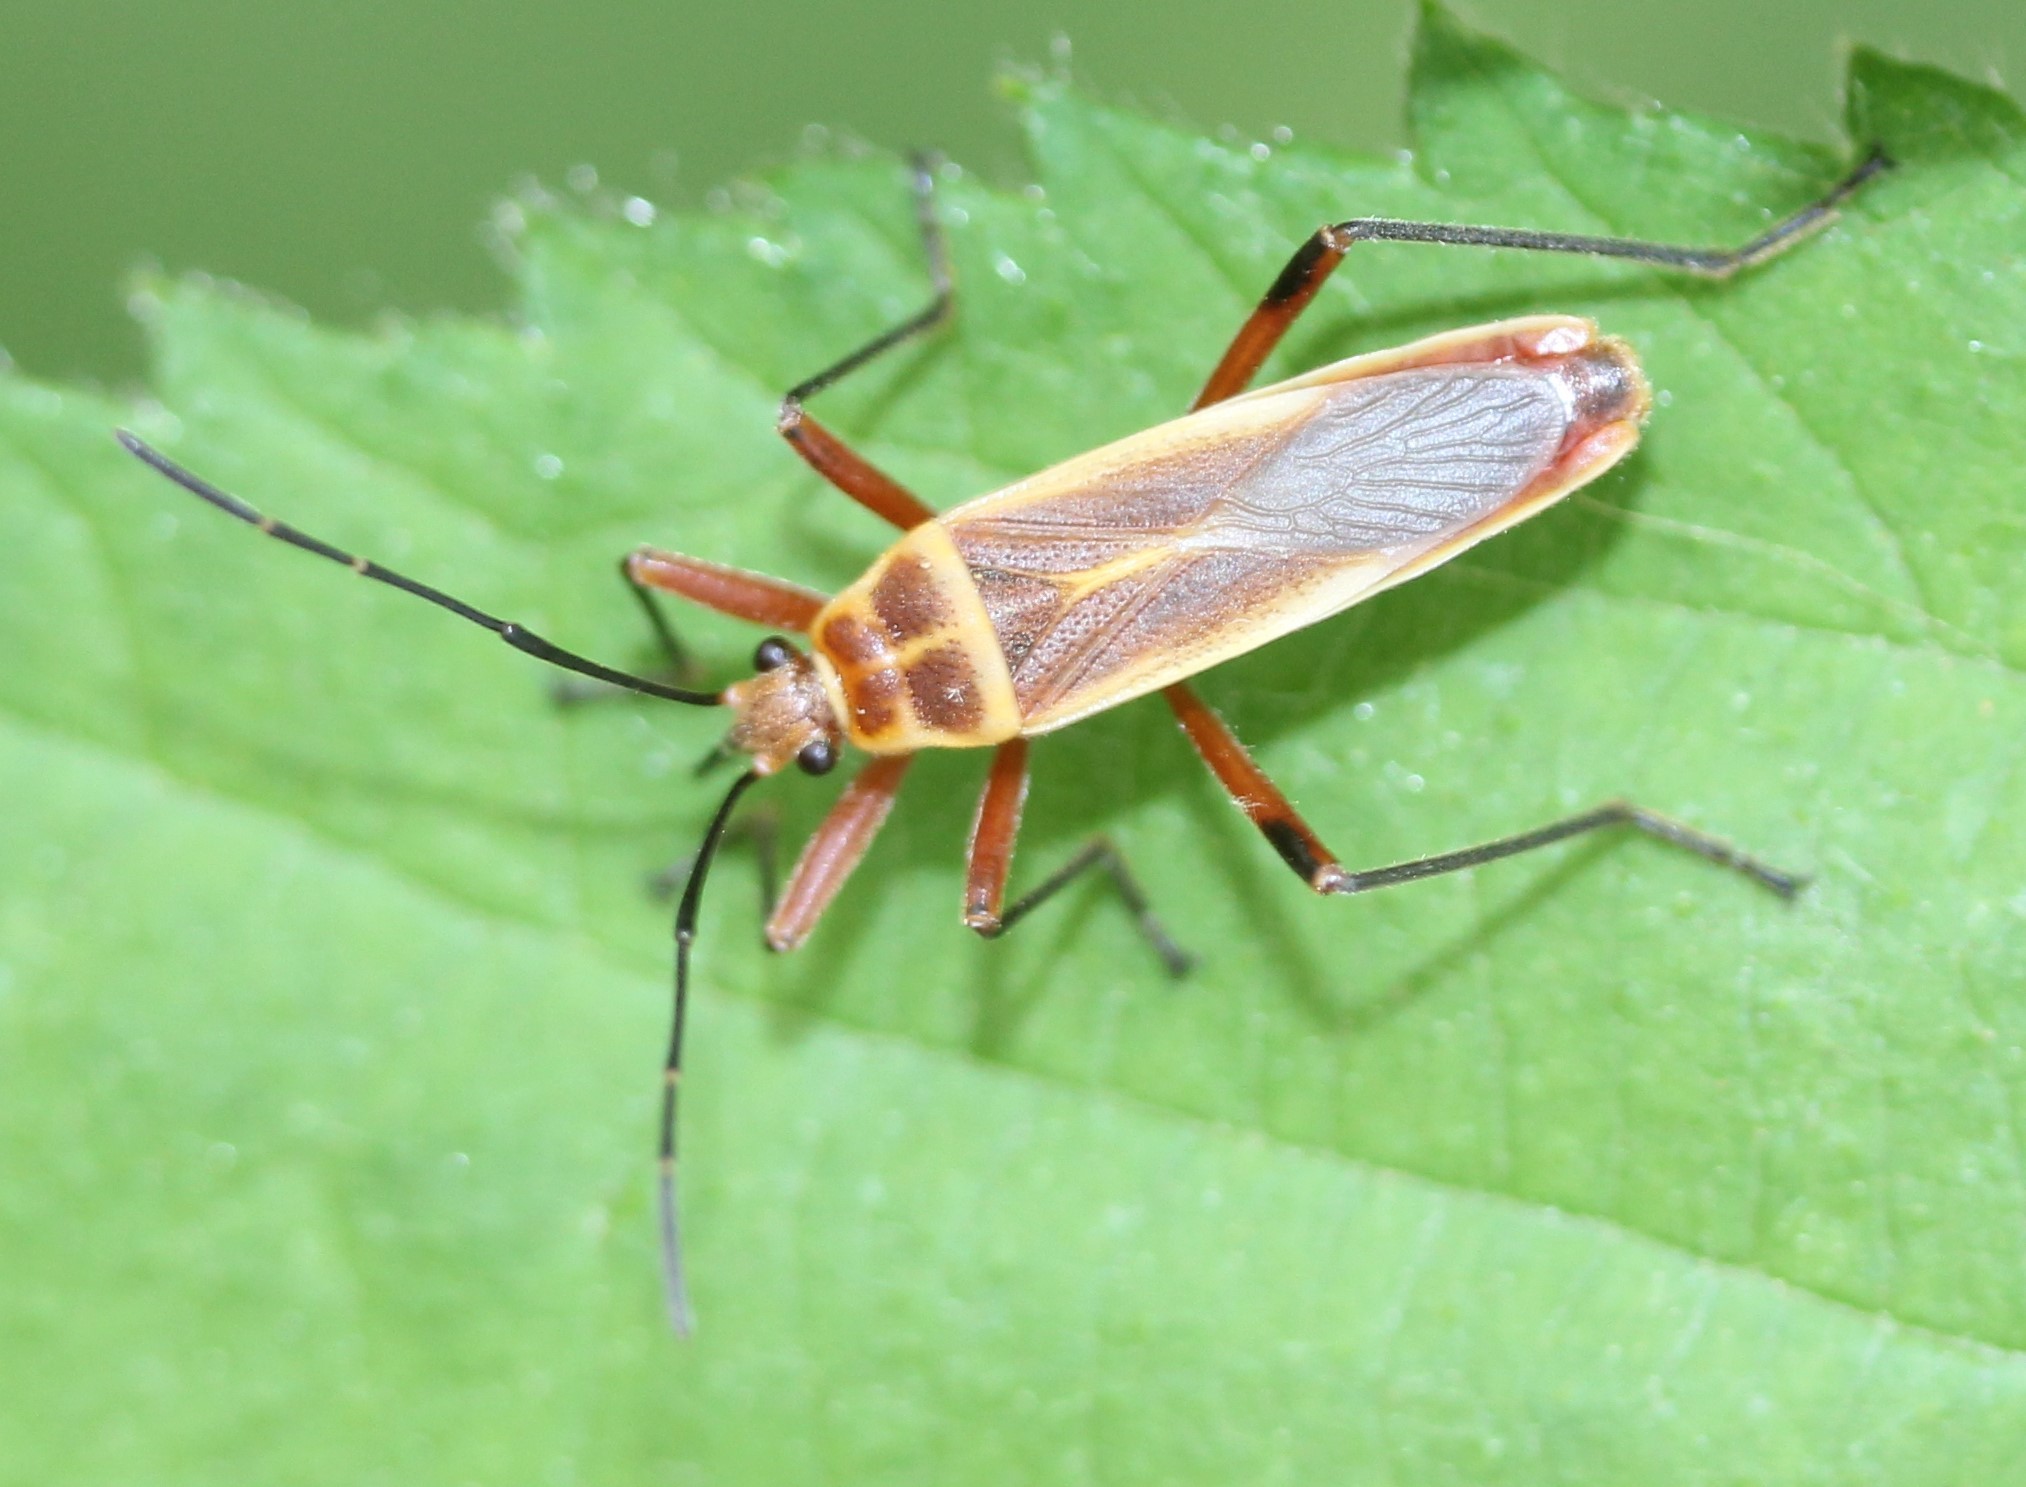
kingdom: Animalia
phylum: Arthropoda
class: Insecta
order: Hemiptera
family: Largidae
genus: Stenomacra
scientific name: Stenomacra marginella
